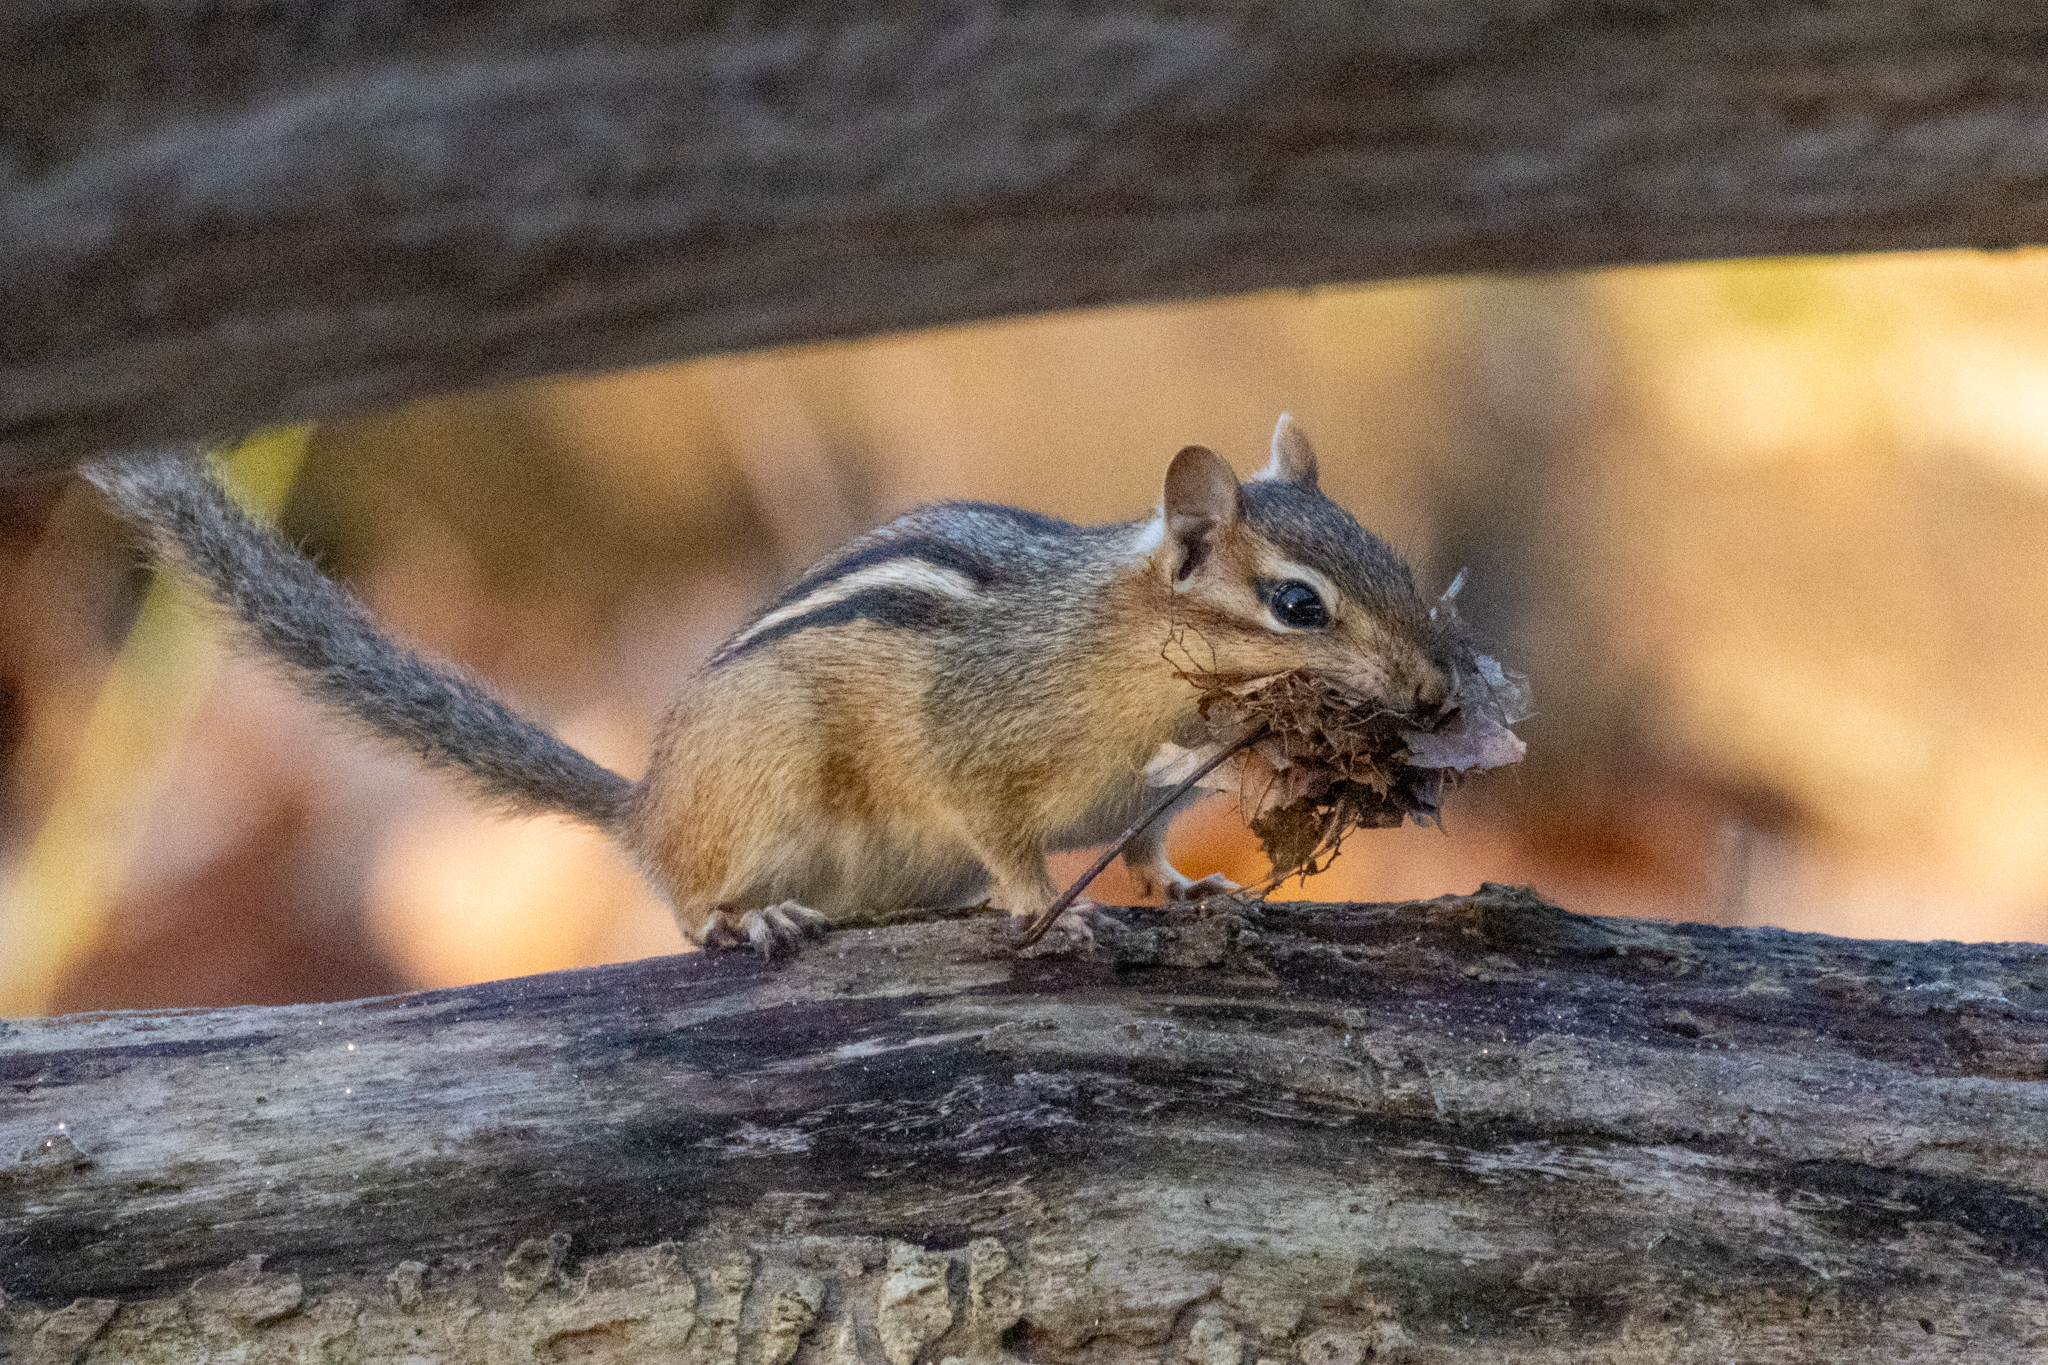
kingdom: Animalia
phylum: Chordata
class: Mammalia
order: Rodentia
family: Sciuridae
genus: Tamias
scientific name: Tamias striatus
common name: Eastern chipmunk
